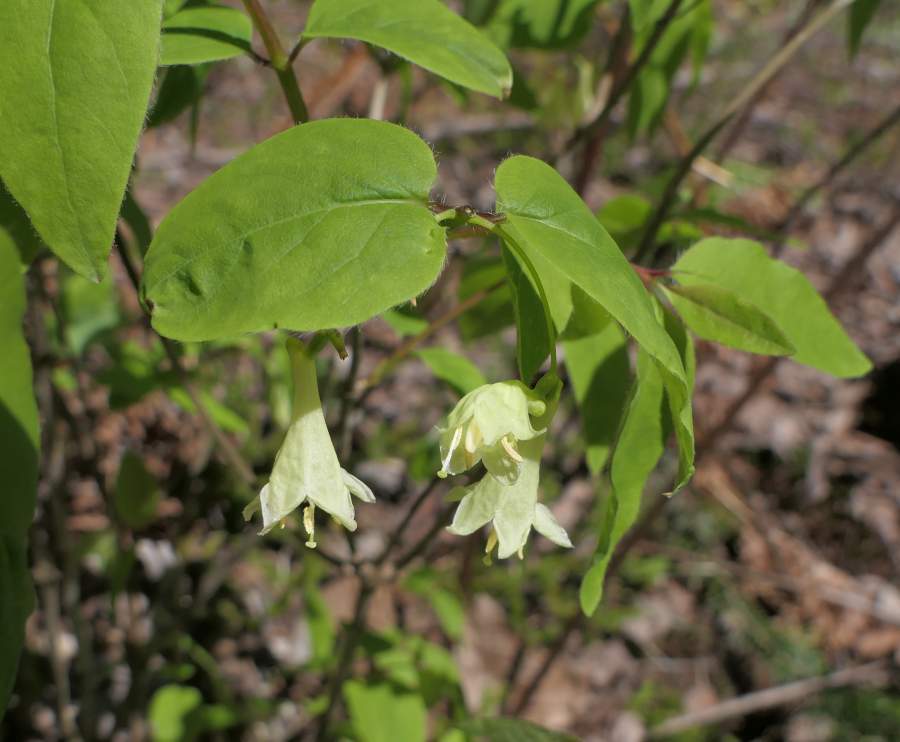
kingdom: Plantae
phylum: Tracheophyta
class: Magnoliopsida
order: Dipsacales
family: Caprifoliaceae
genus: Lonicera
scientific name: Lonicera canadensis
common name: American fly-honeysuckle
